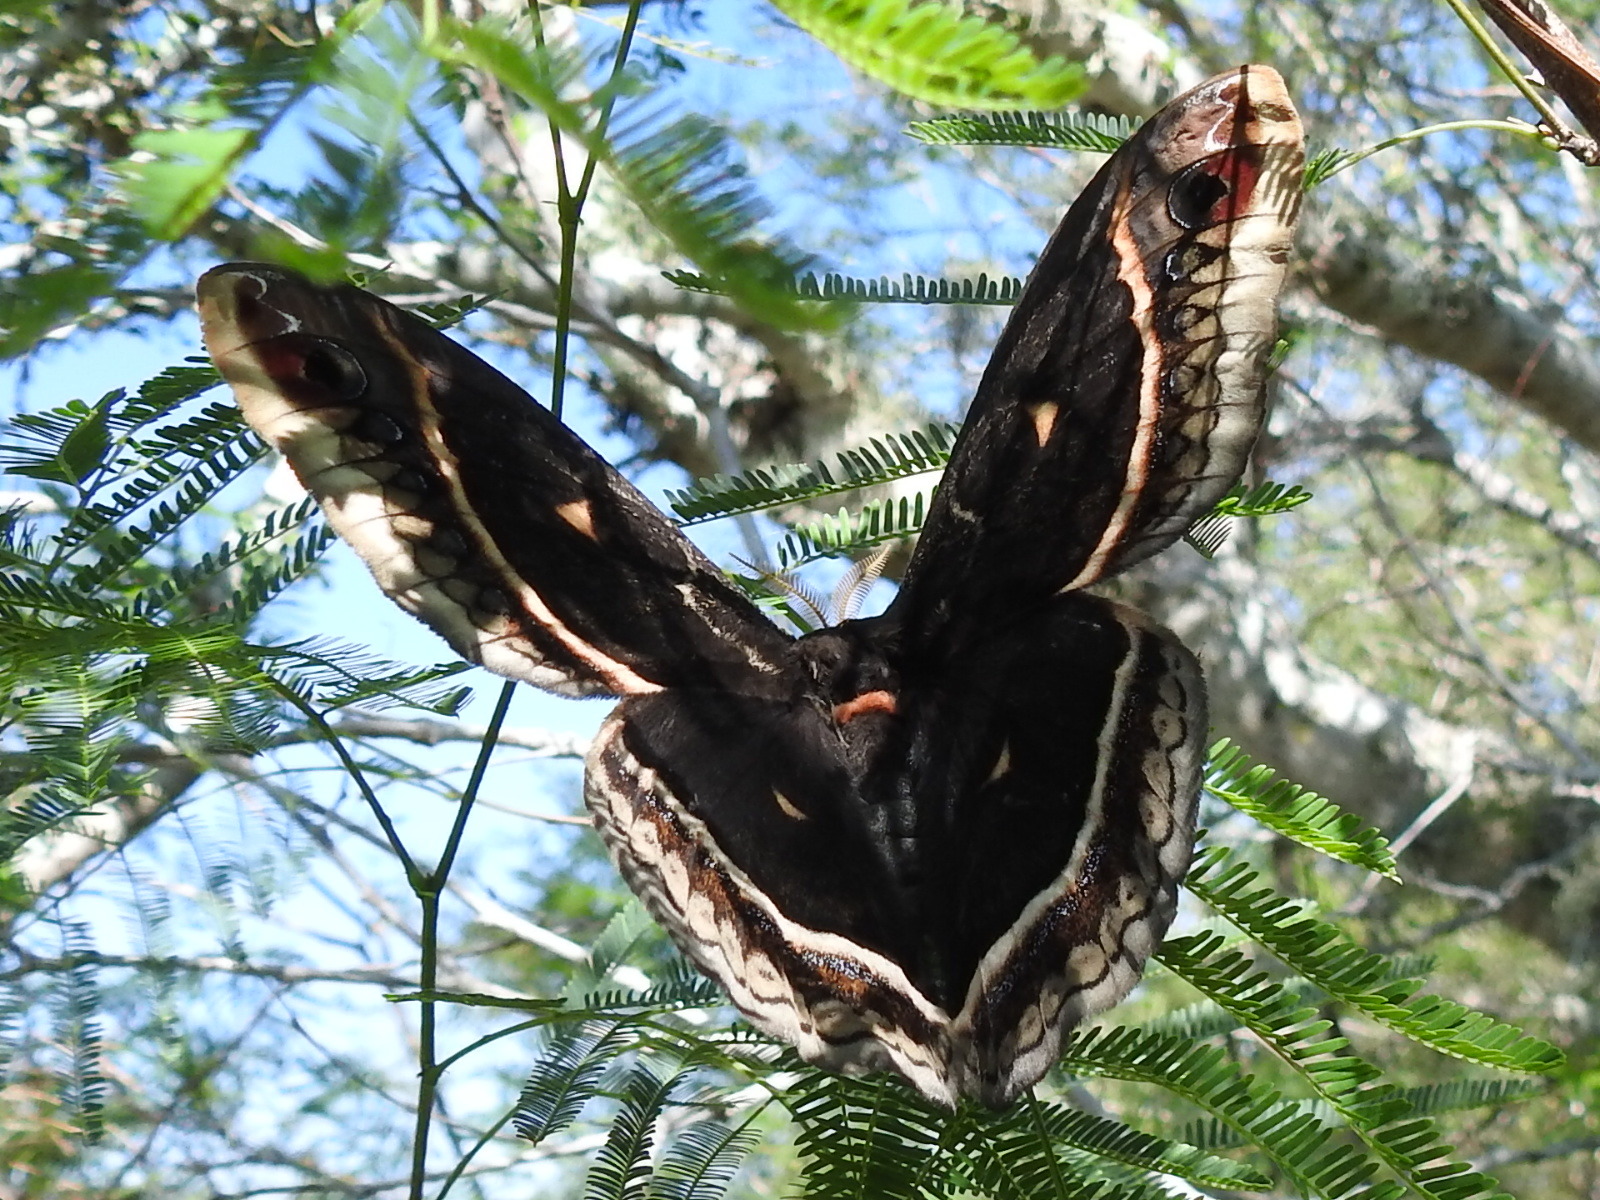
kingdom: Animalia
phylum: Arthropoda
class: Insecta
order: Lepidoptera
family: Saturniidae
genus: Eupackardia
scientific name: Eupackardia calleta
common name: Calleta silkmoth
